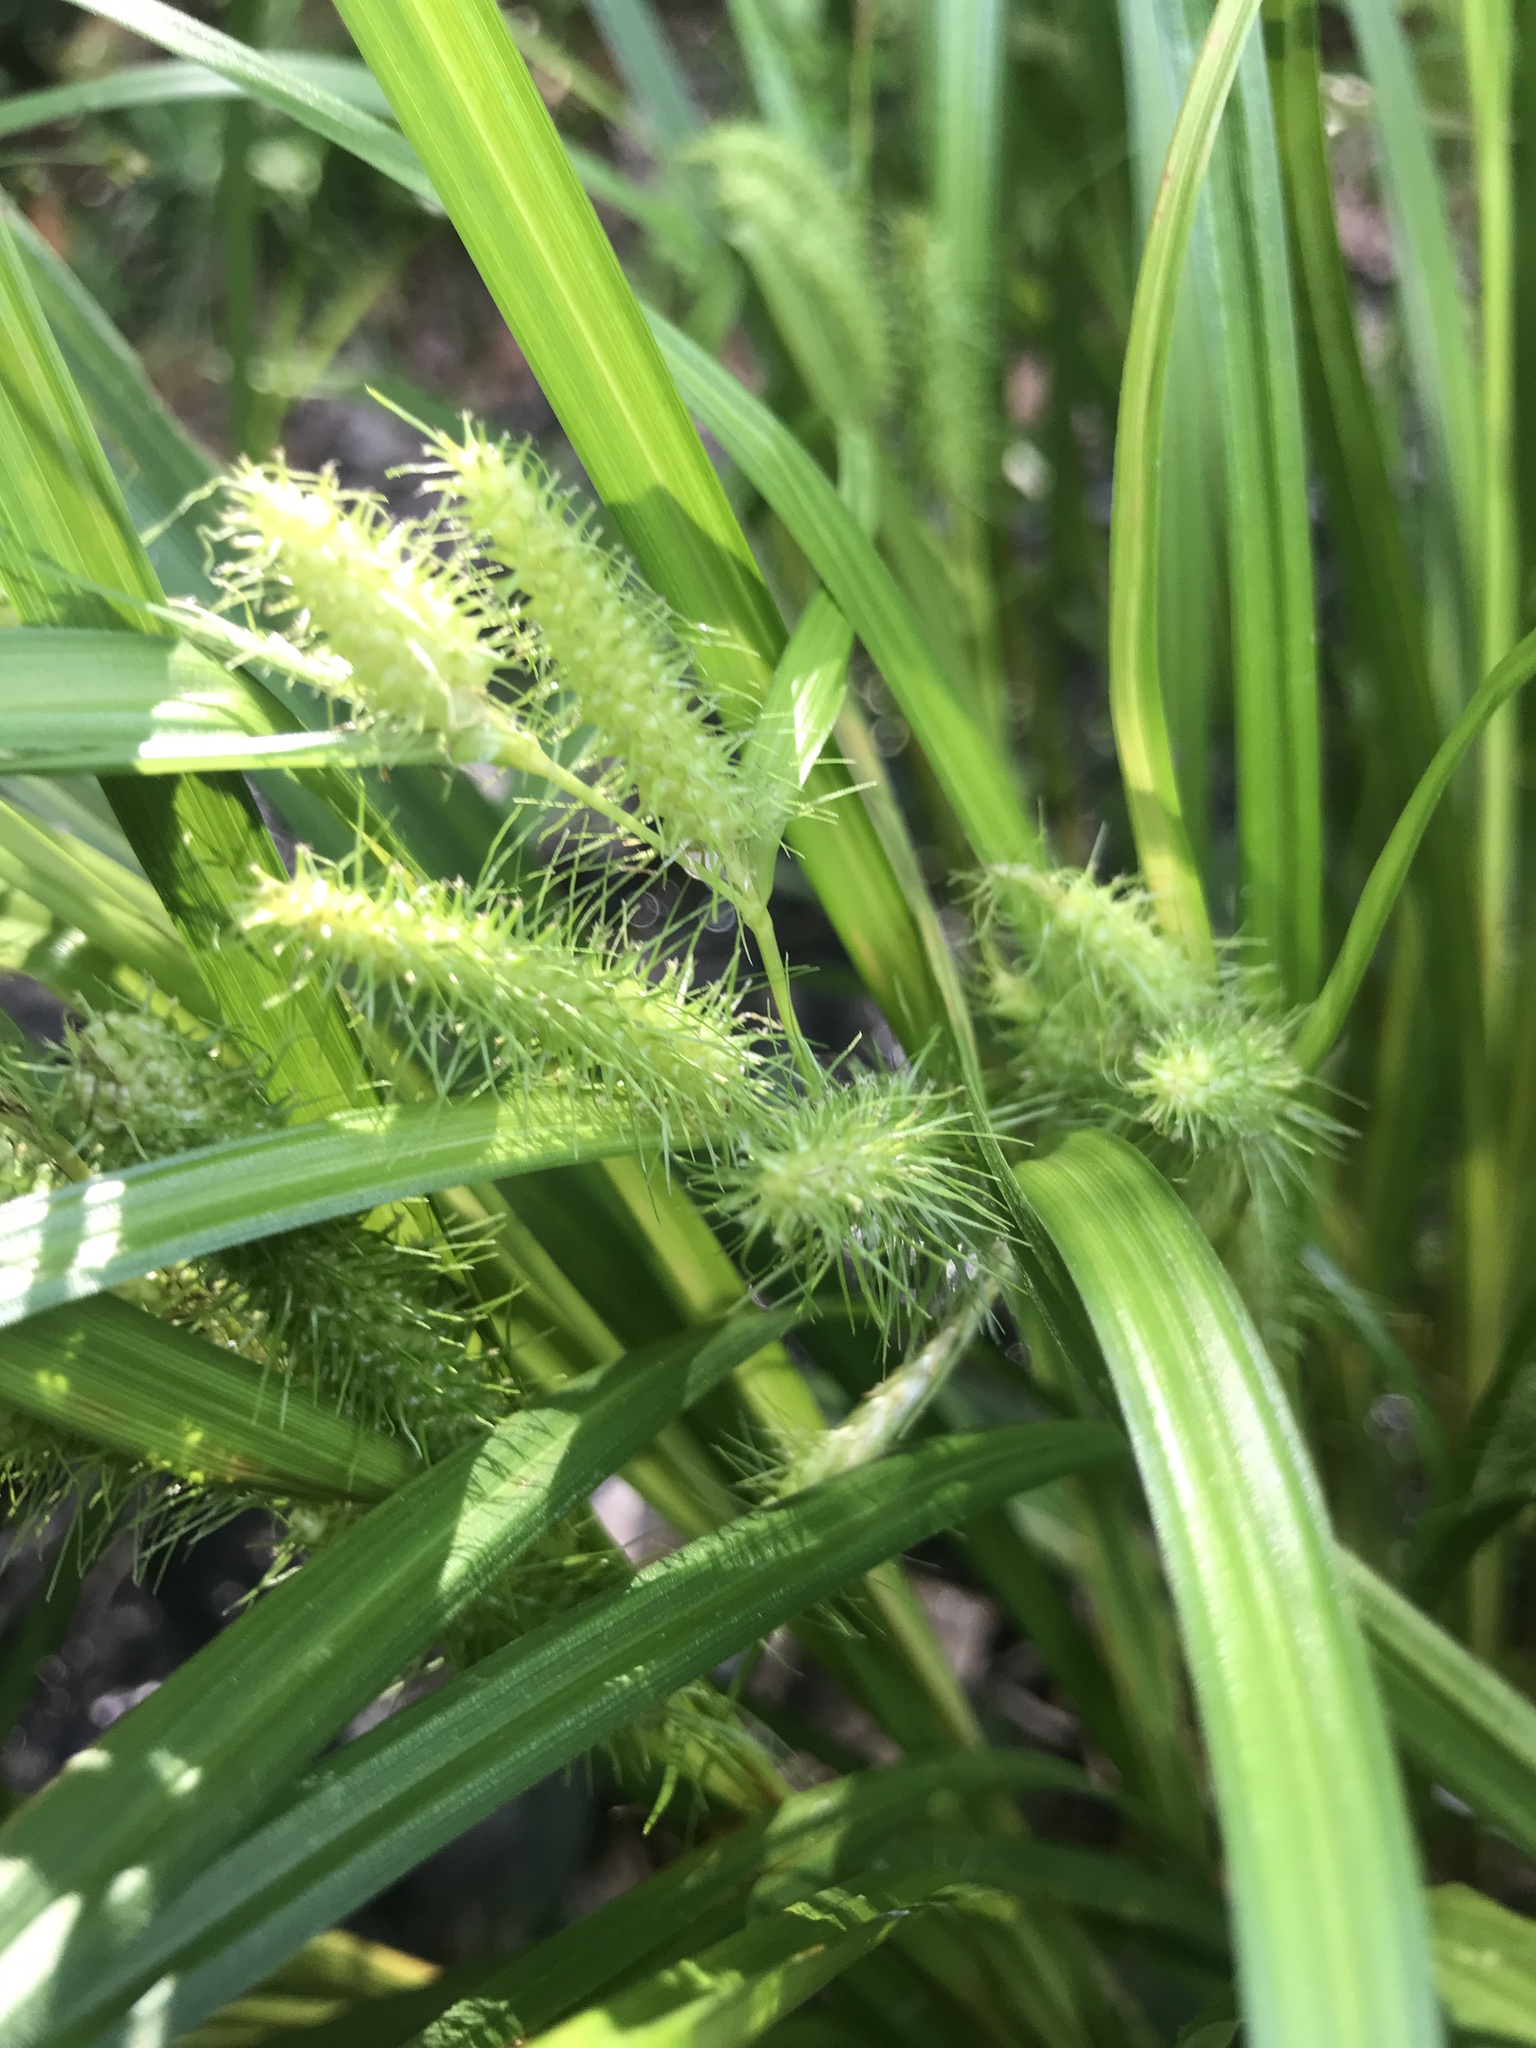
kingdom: Plantae
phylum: Tracheophyta
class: Liliopsida
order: Poales
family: Cyperaceae
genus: Carex
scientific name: Carex frankii
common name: Frank's sedge
